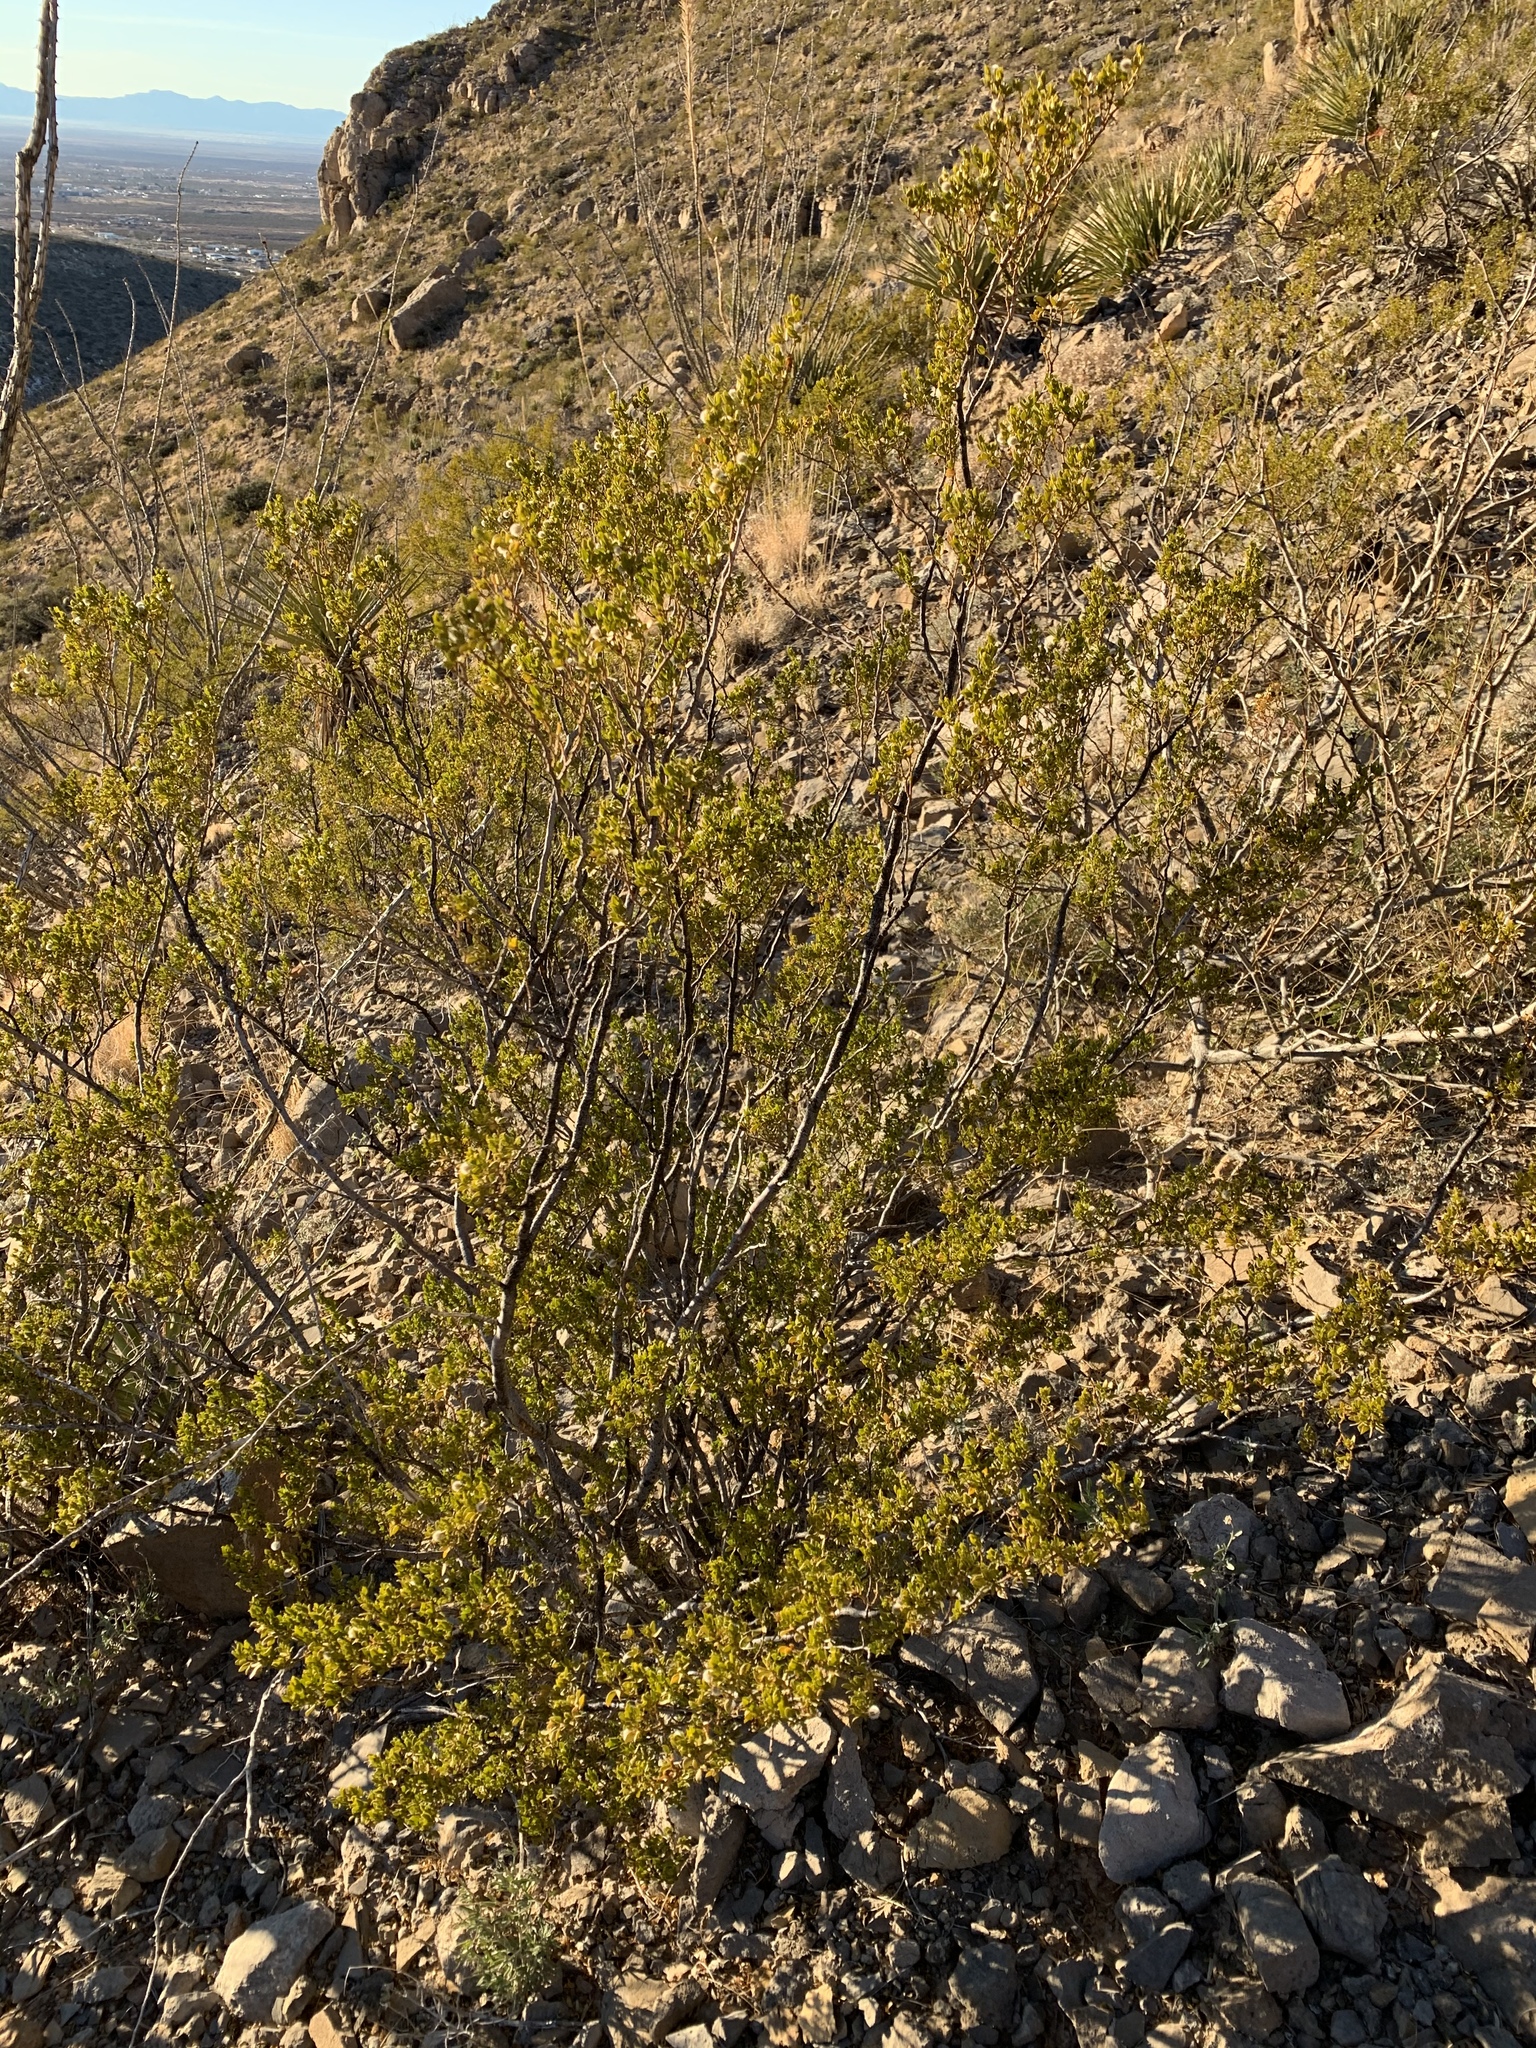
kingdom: Plantae
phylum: Tracheophyta
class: Magnoliopsida
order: Zygophyllales
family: Zygophyllaceae
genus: Larrea
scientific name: Larrea tridentata
